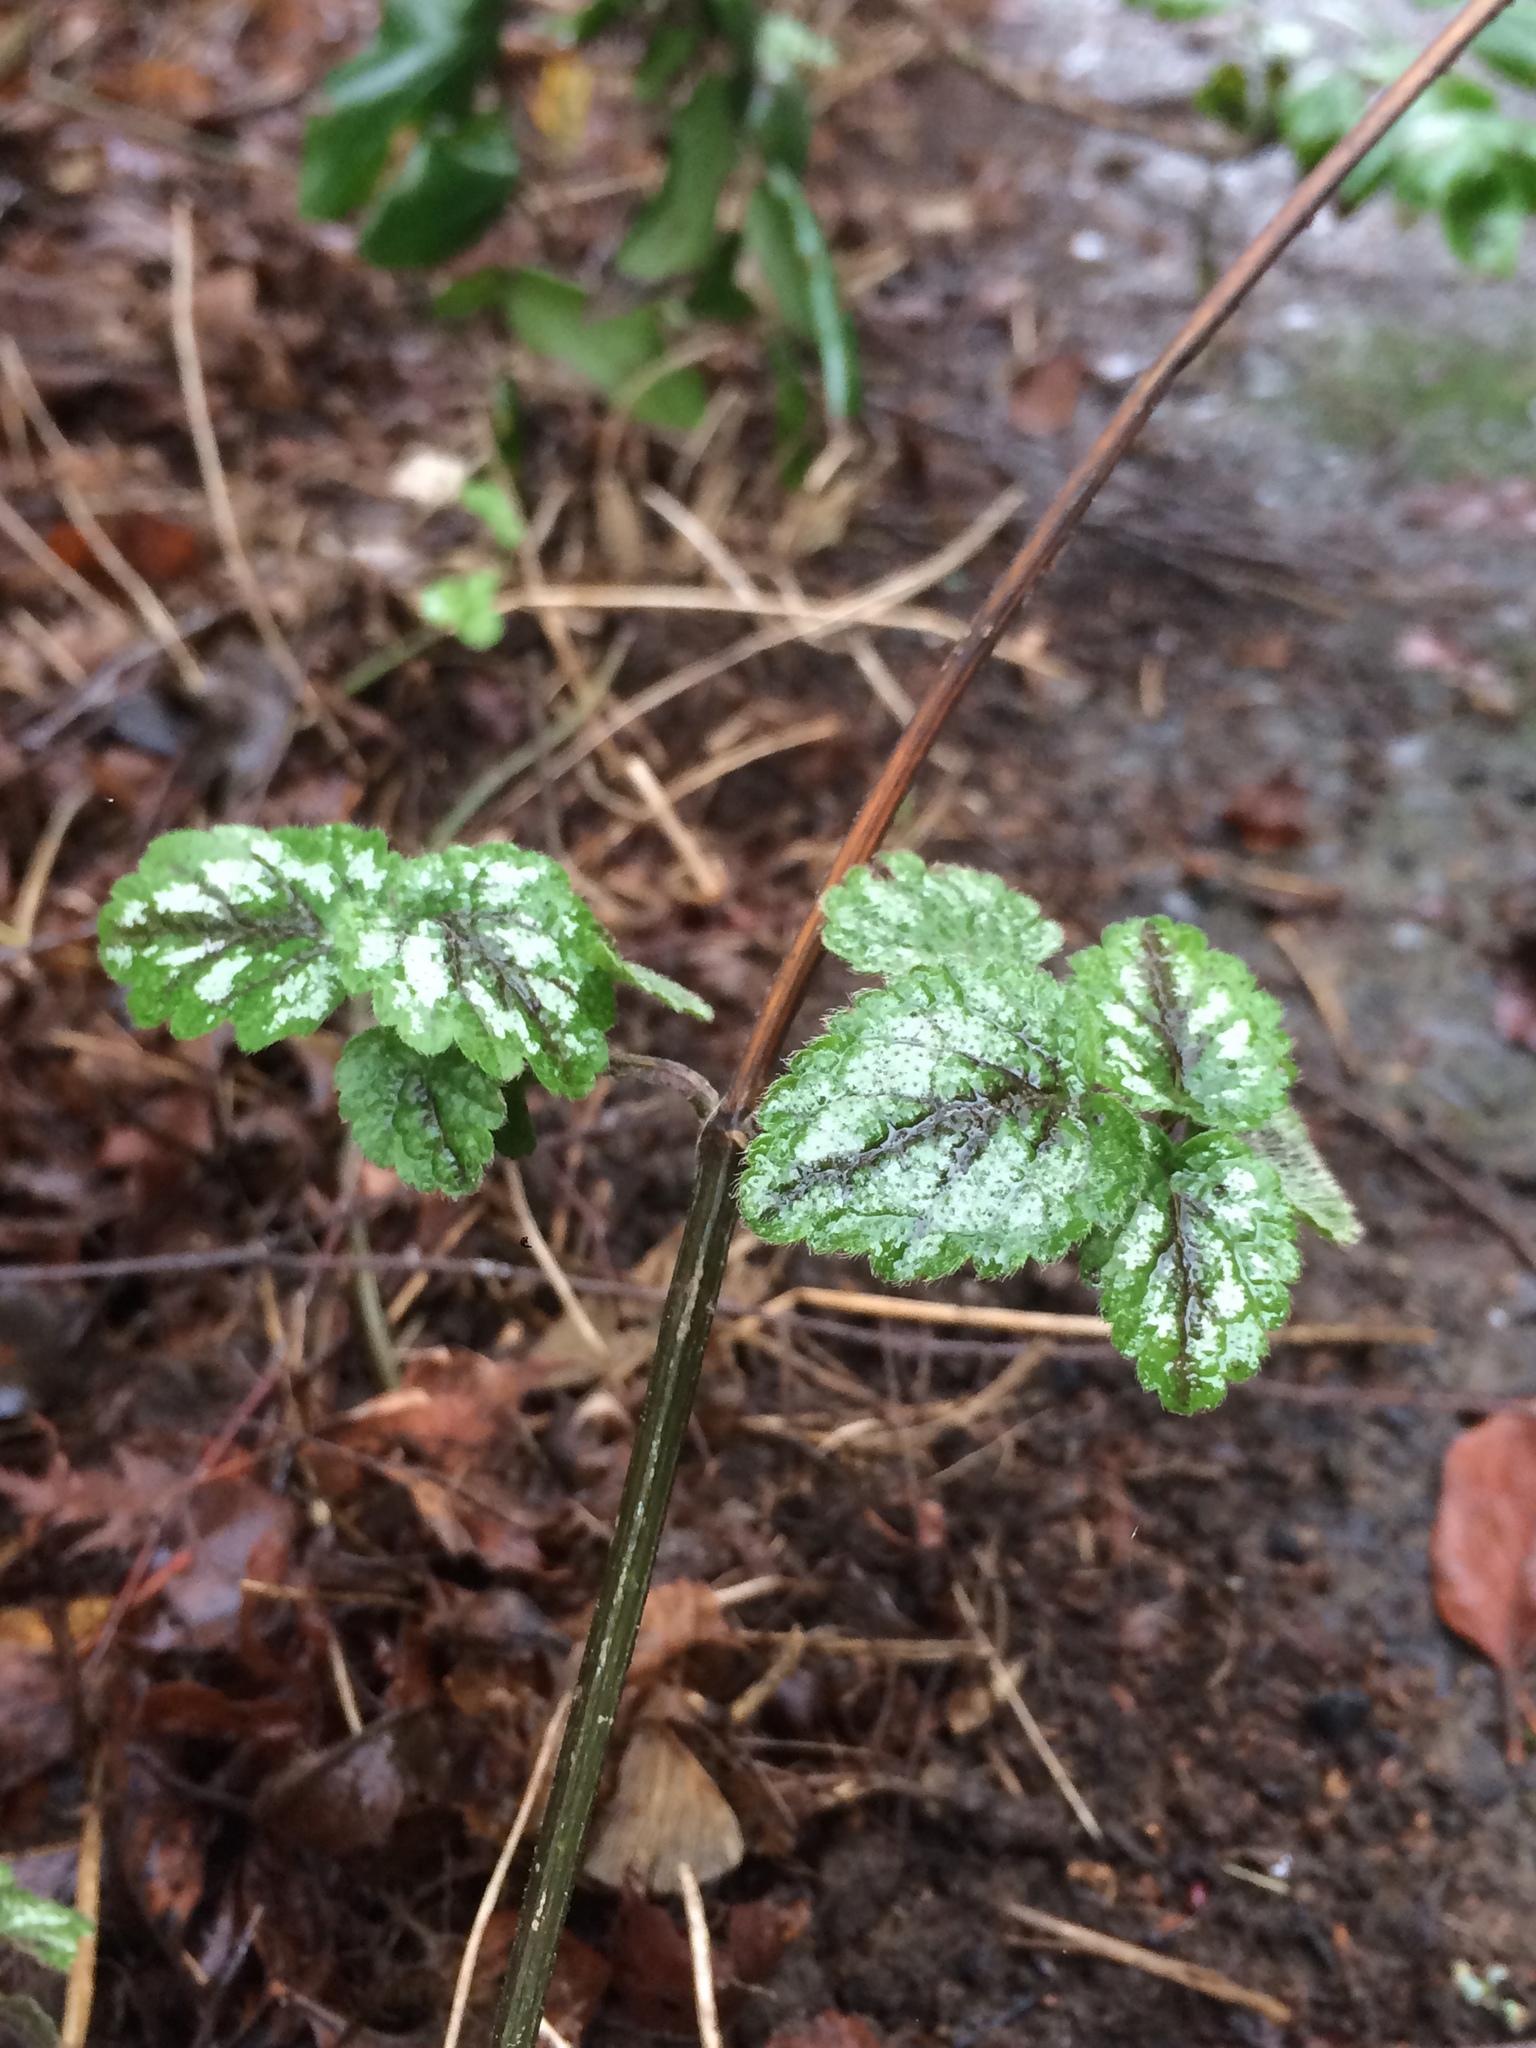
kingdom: Plantae
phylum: Tracheophyta
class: Magnoliopsida
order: Lamiales
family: Lamiaceae
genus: Lamium
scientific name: Lamium galeobdolon
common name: Yellow archangel
